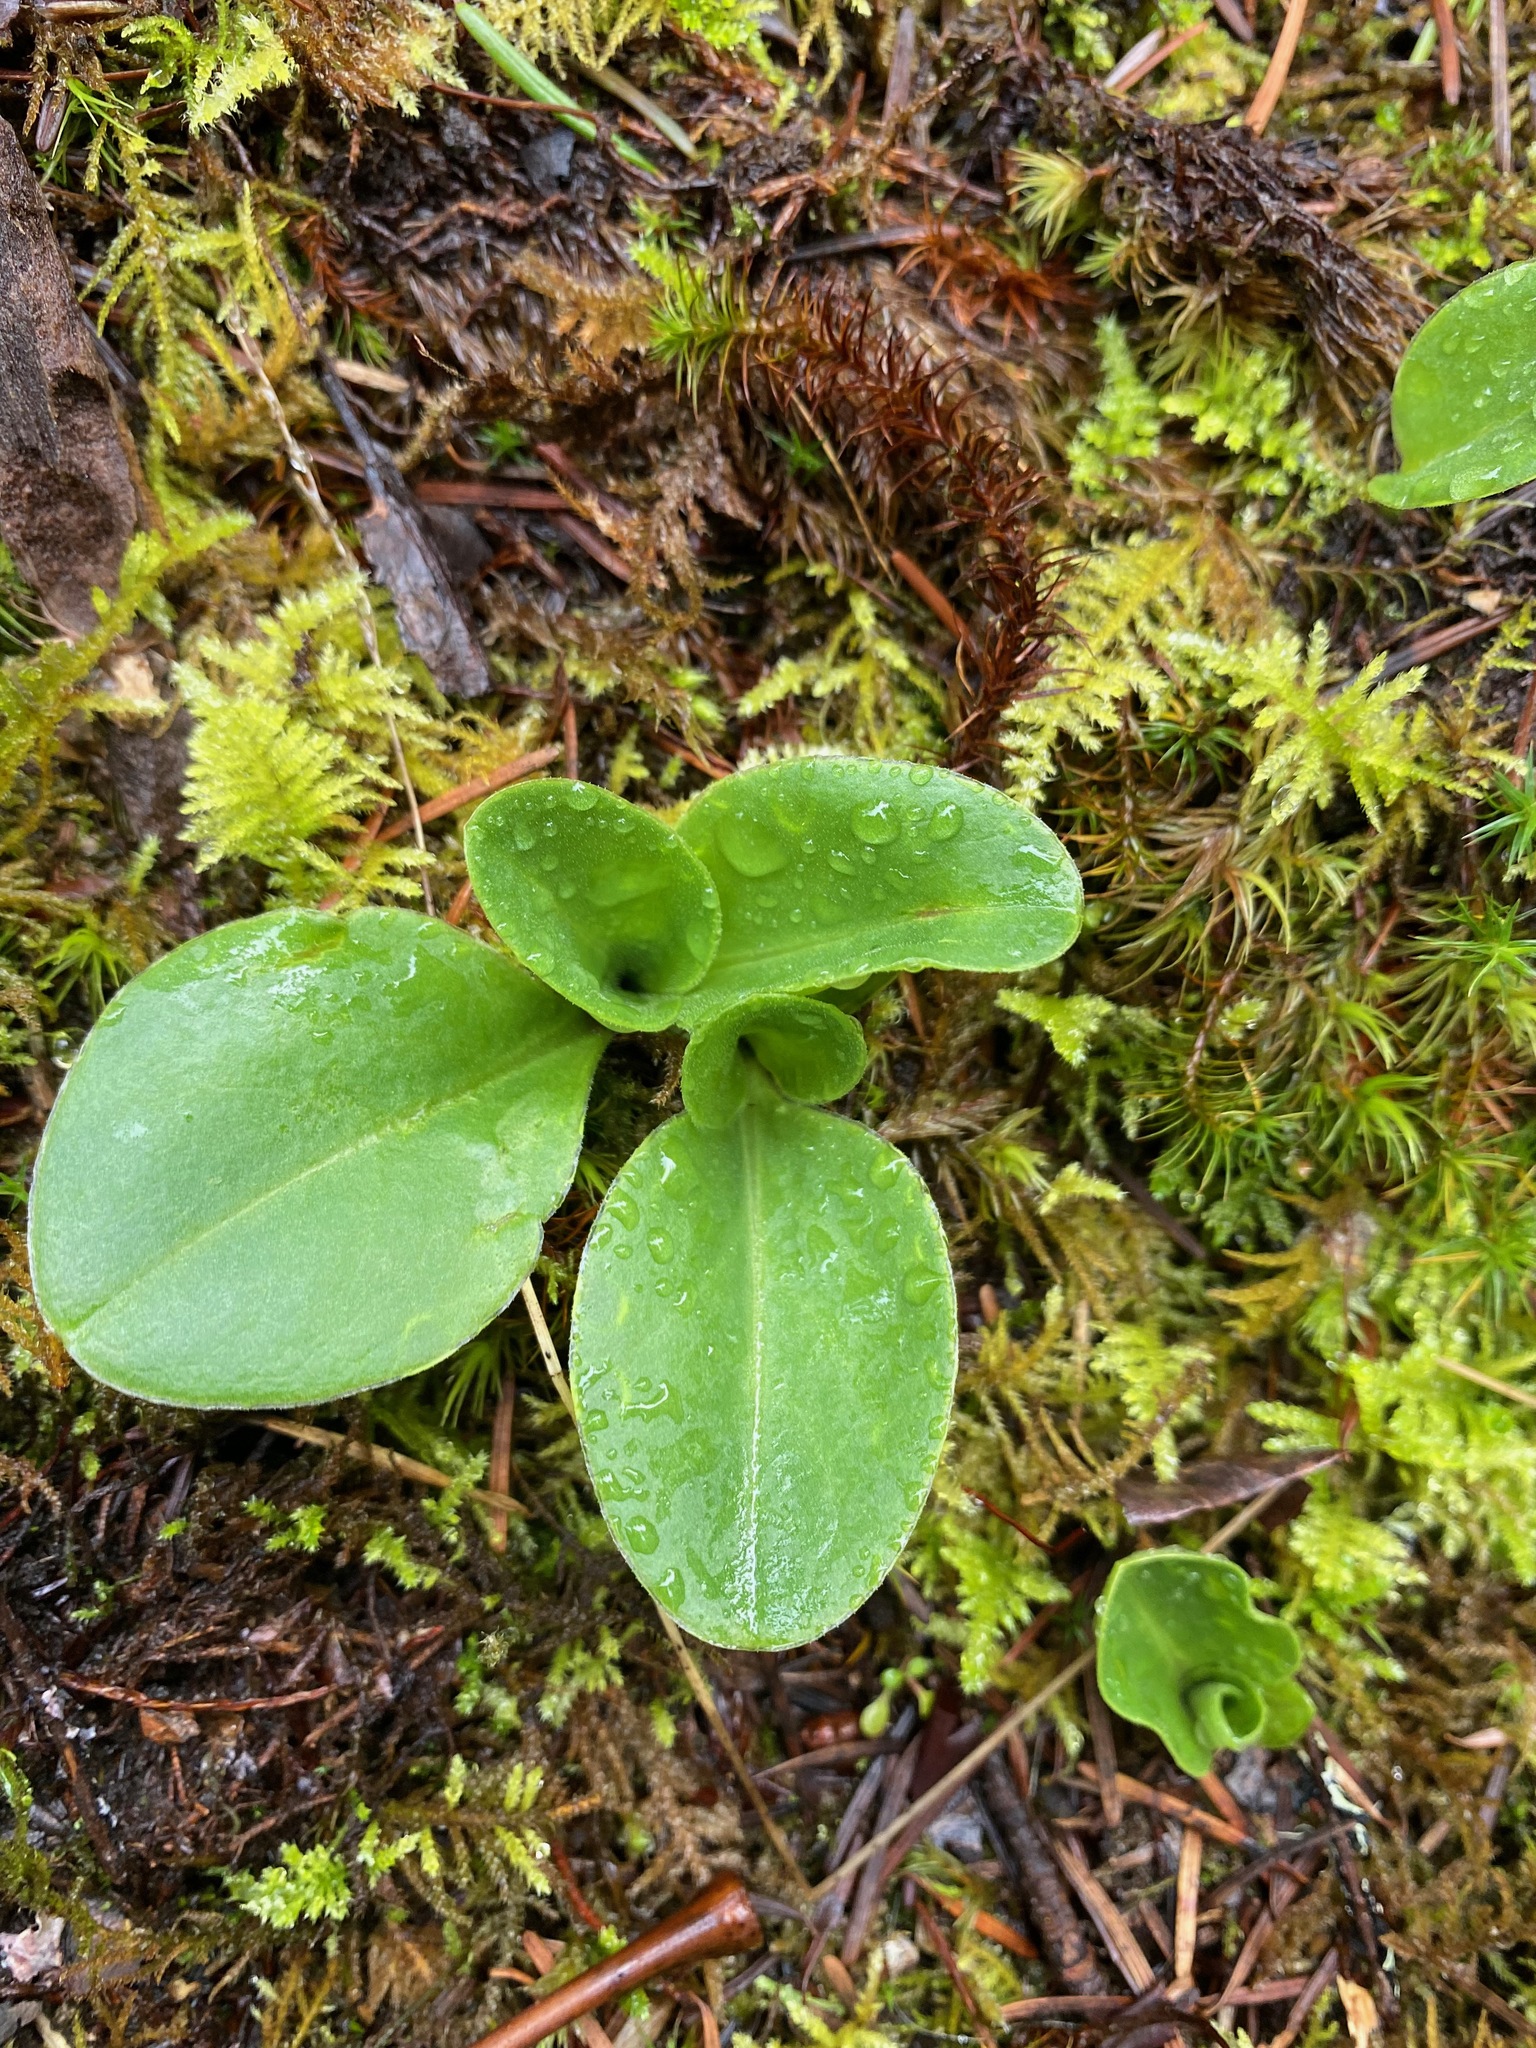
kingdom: Plantae
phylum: Tracheophyta
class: Magnoliopsida
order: Ericales
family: Primulaceae
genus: Dodecatheon
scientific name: Dodecatheon hendersonii
